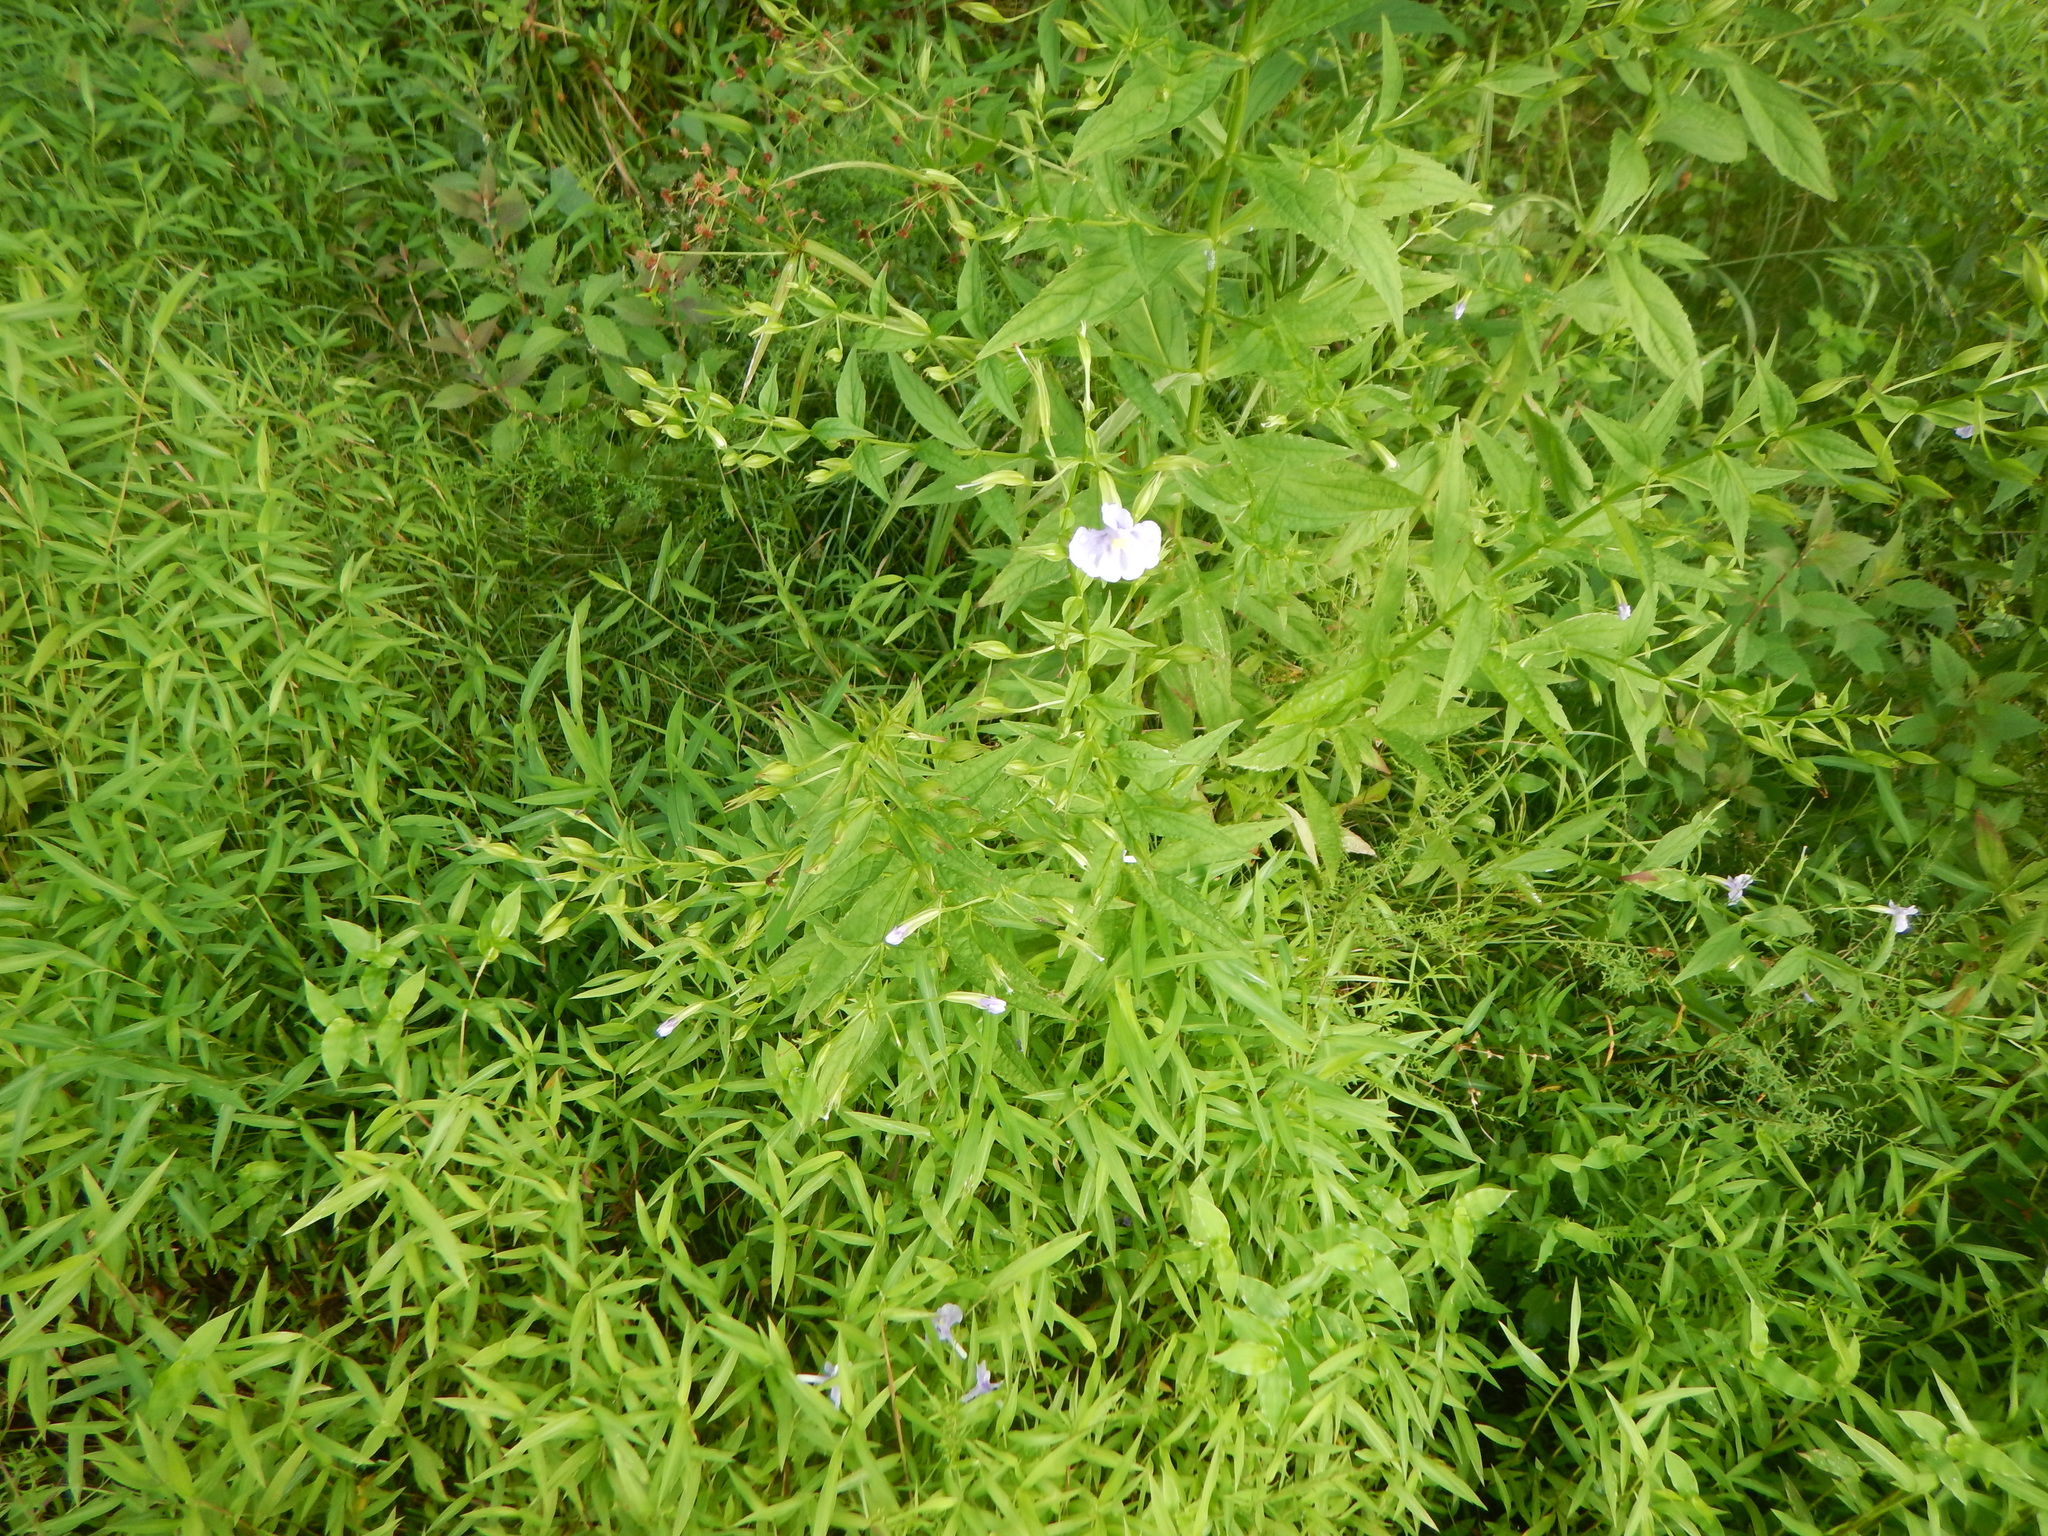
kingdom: Plantae
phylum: Tracheophyta
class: Magnoliopsida
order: Lamiales
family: Phrymaceae
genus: Mimulus
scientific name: Mimulus ringens
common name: Allegheny monkeyflower
